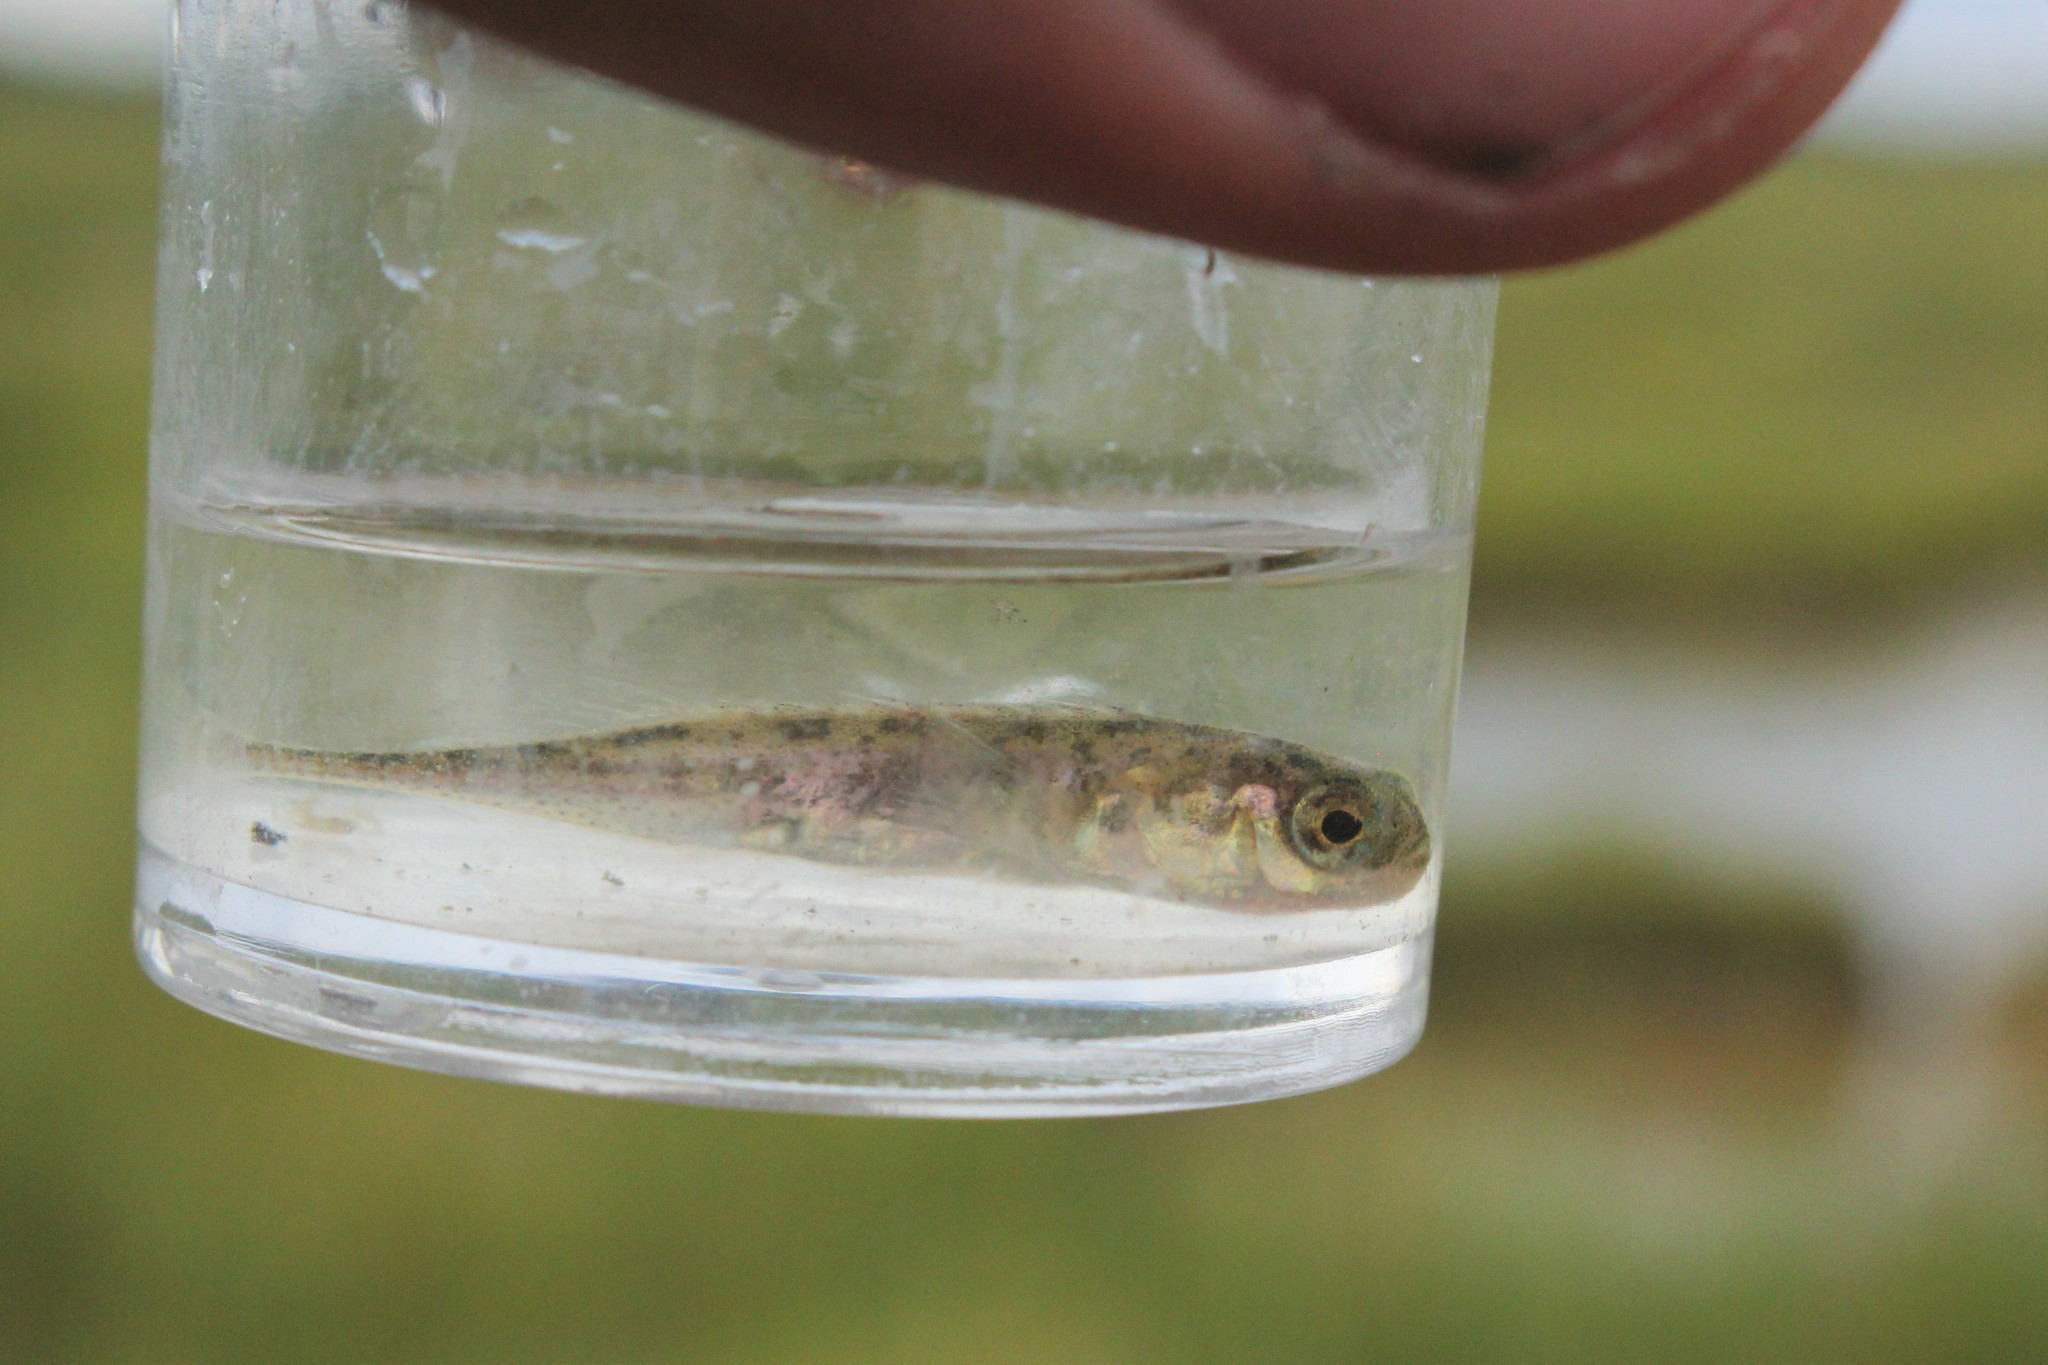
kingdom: Animalia
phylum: Chordata
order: Gasterosteiformes
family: Gasterosteidae
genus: Pungitius
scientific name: Pungitius pungitius
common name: Nine-spined stickleback
